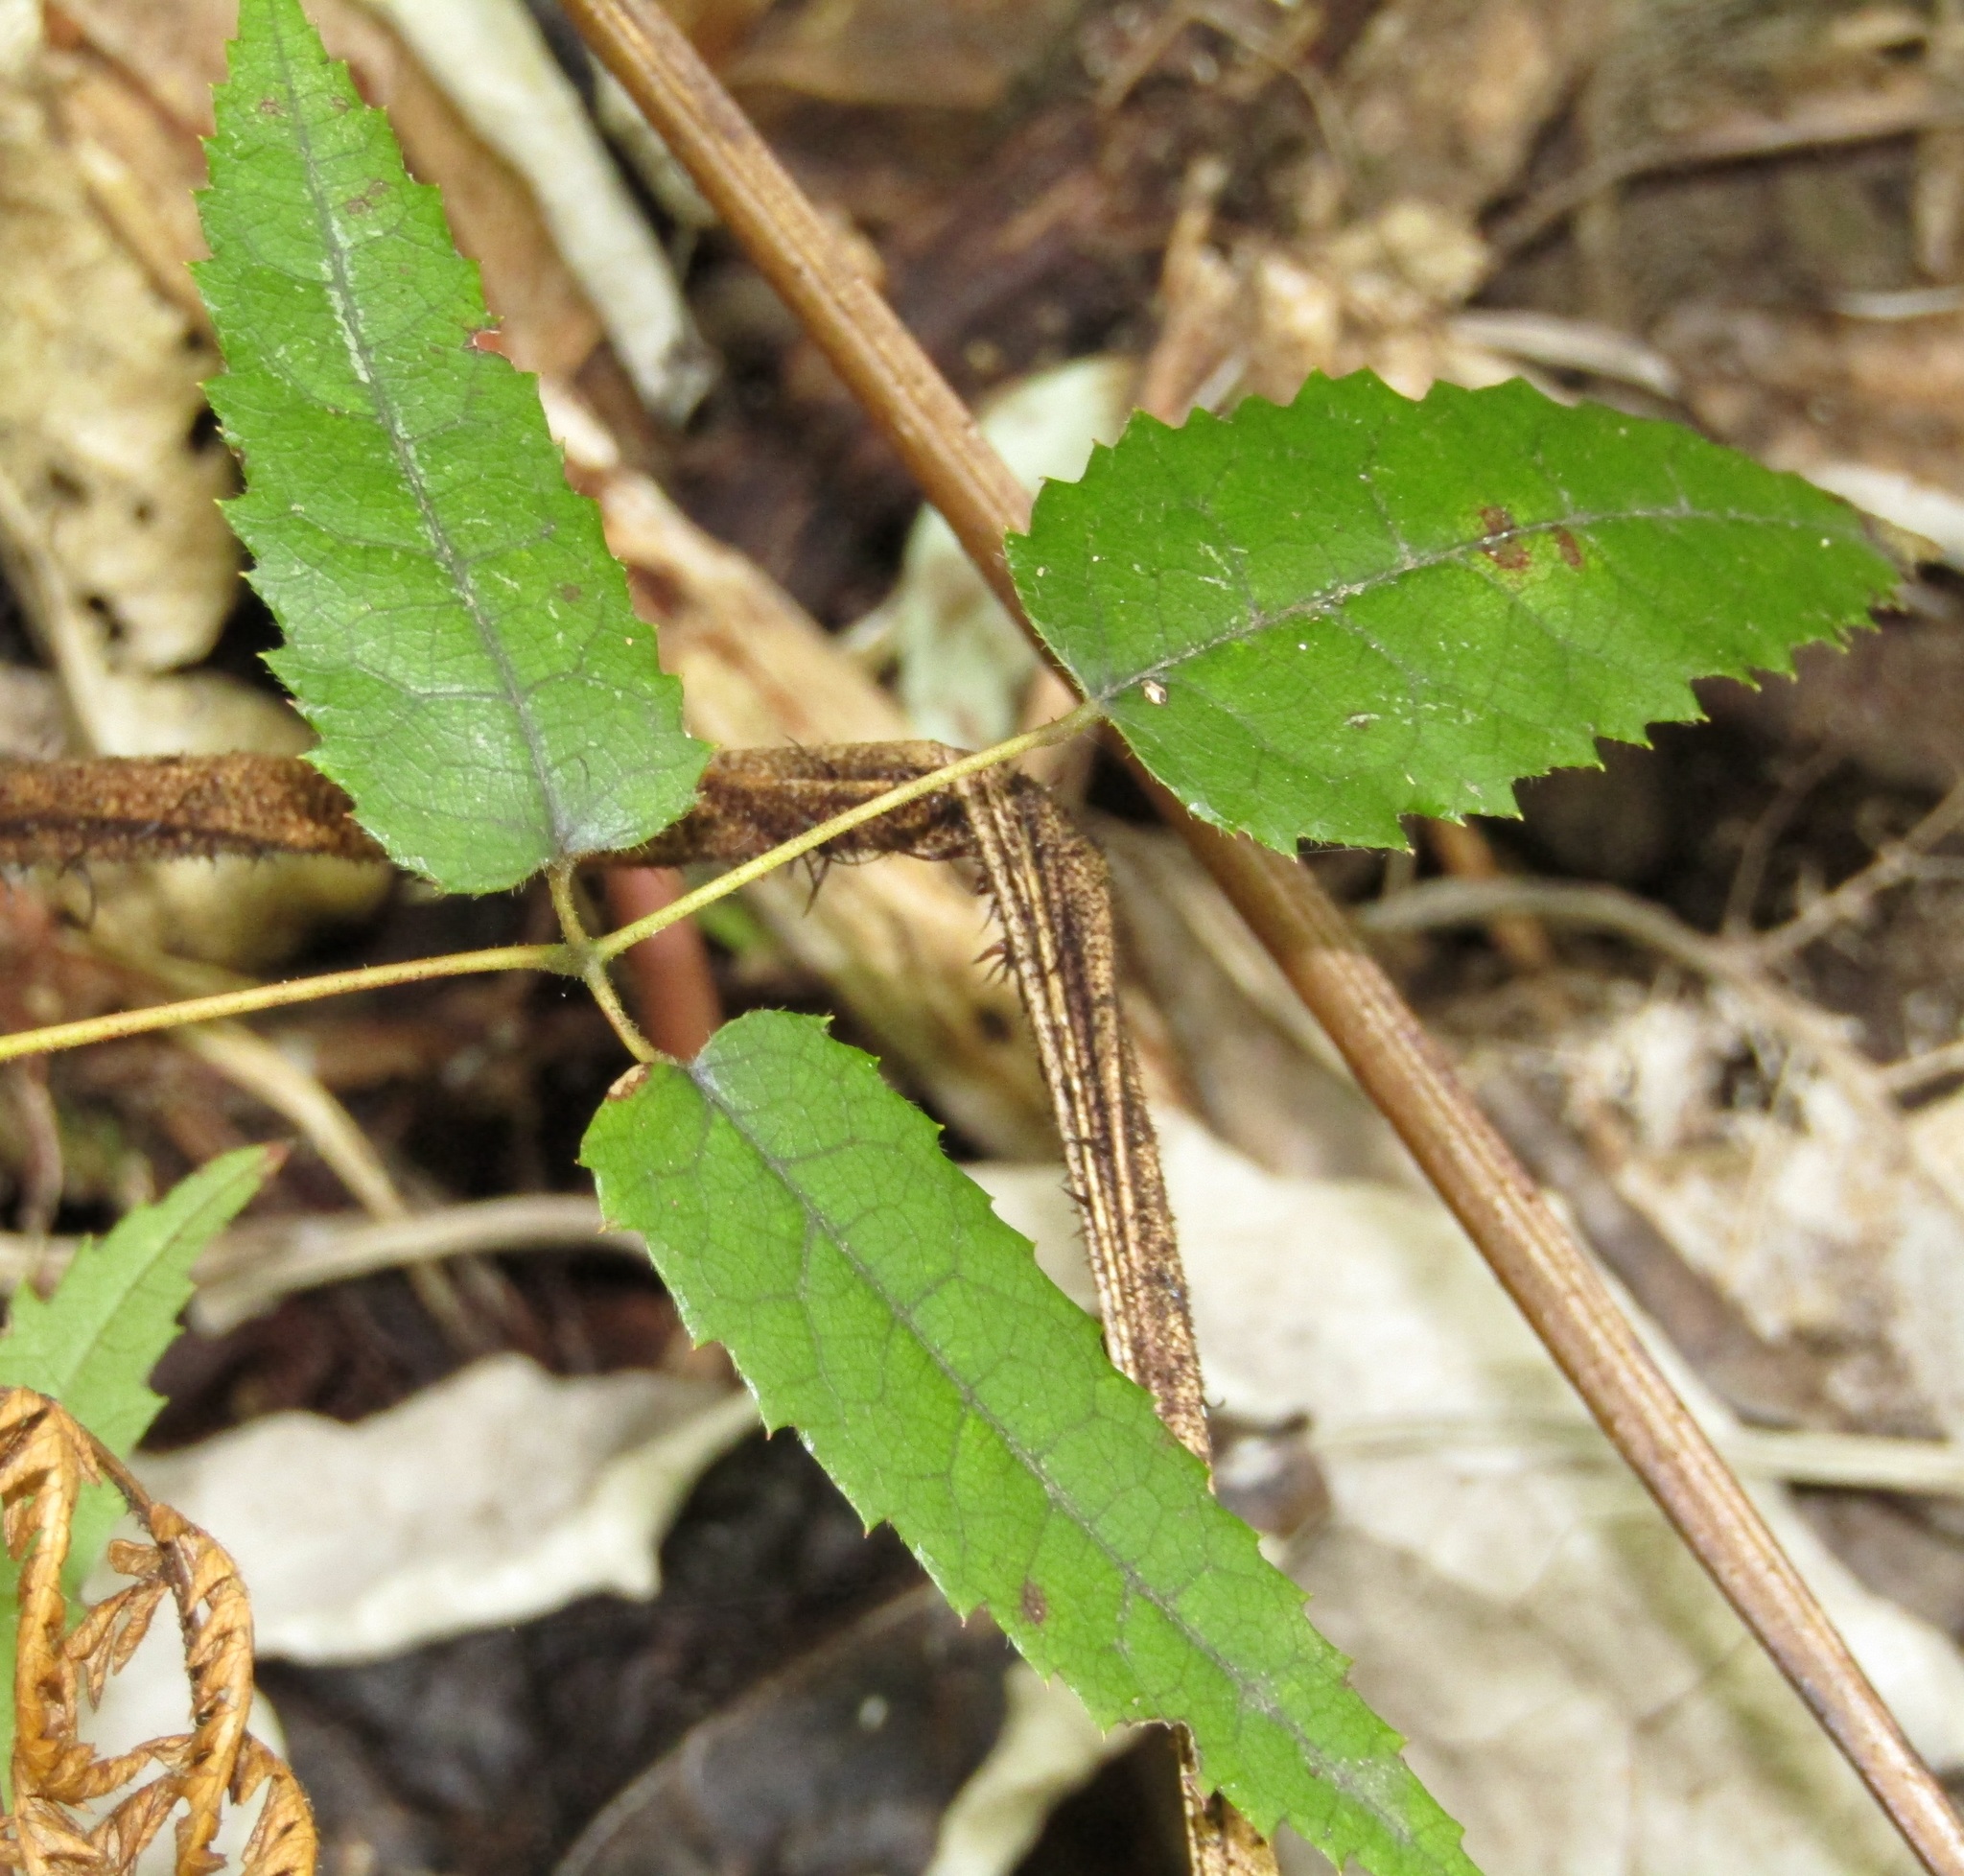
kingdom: Plantae
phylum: Tracheophyta
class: Magnoliopsida
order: Rosales
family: Rosaceae
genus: Rubus
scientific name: Rubus cissoides
